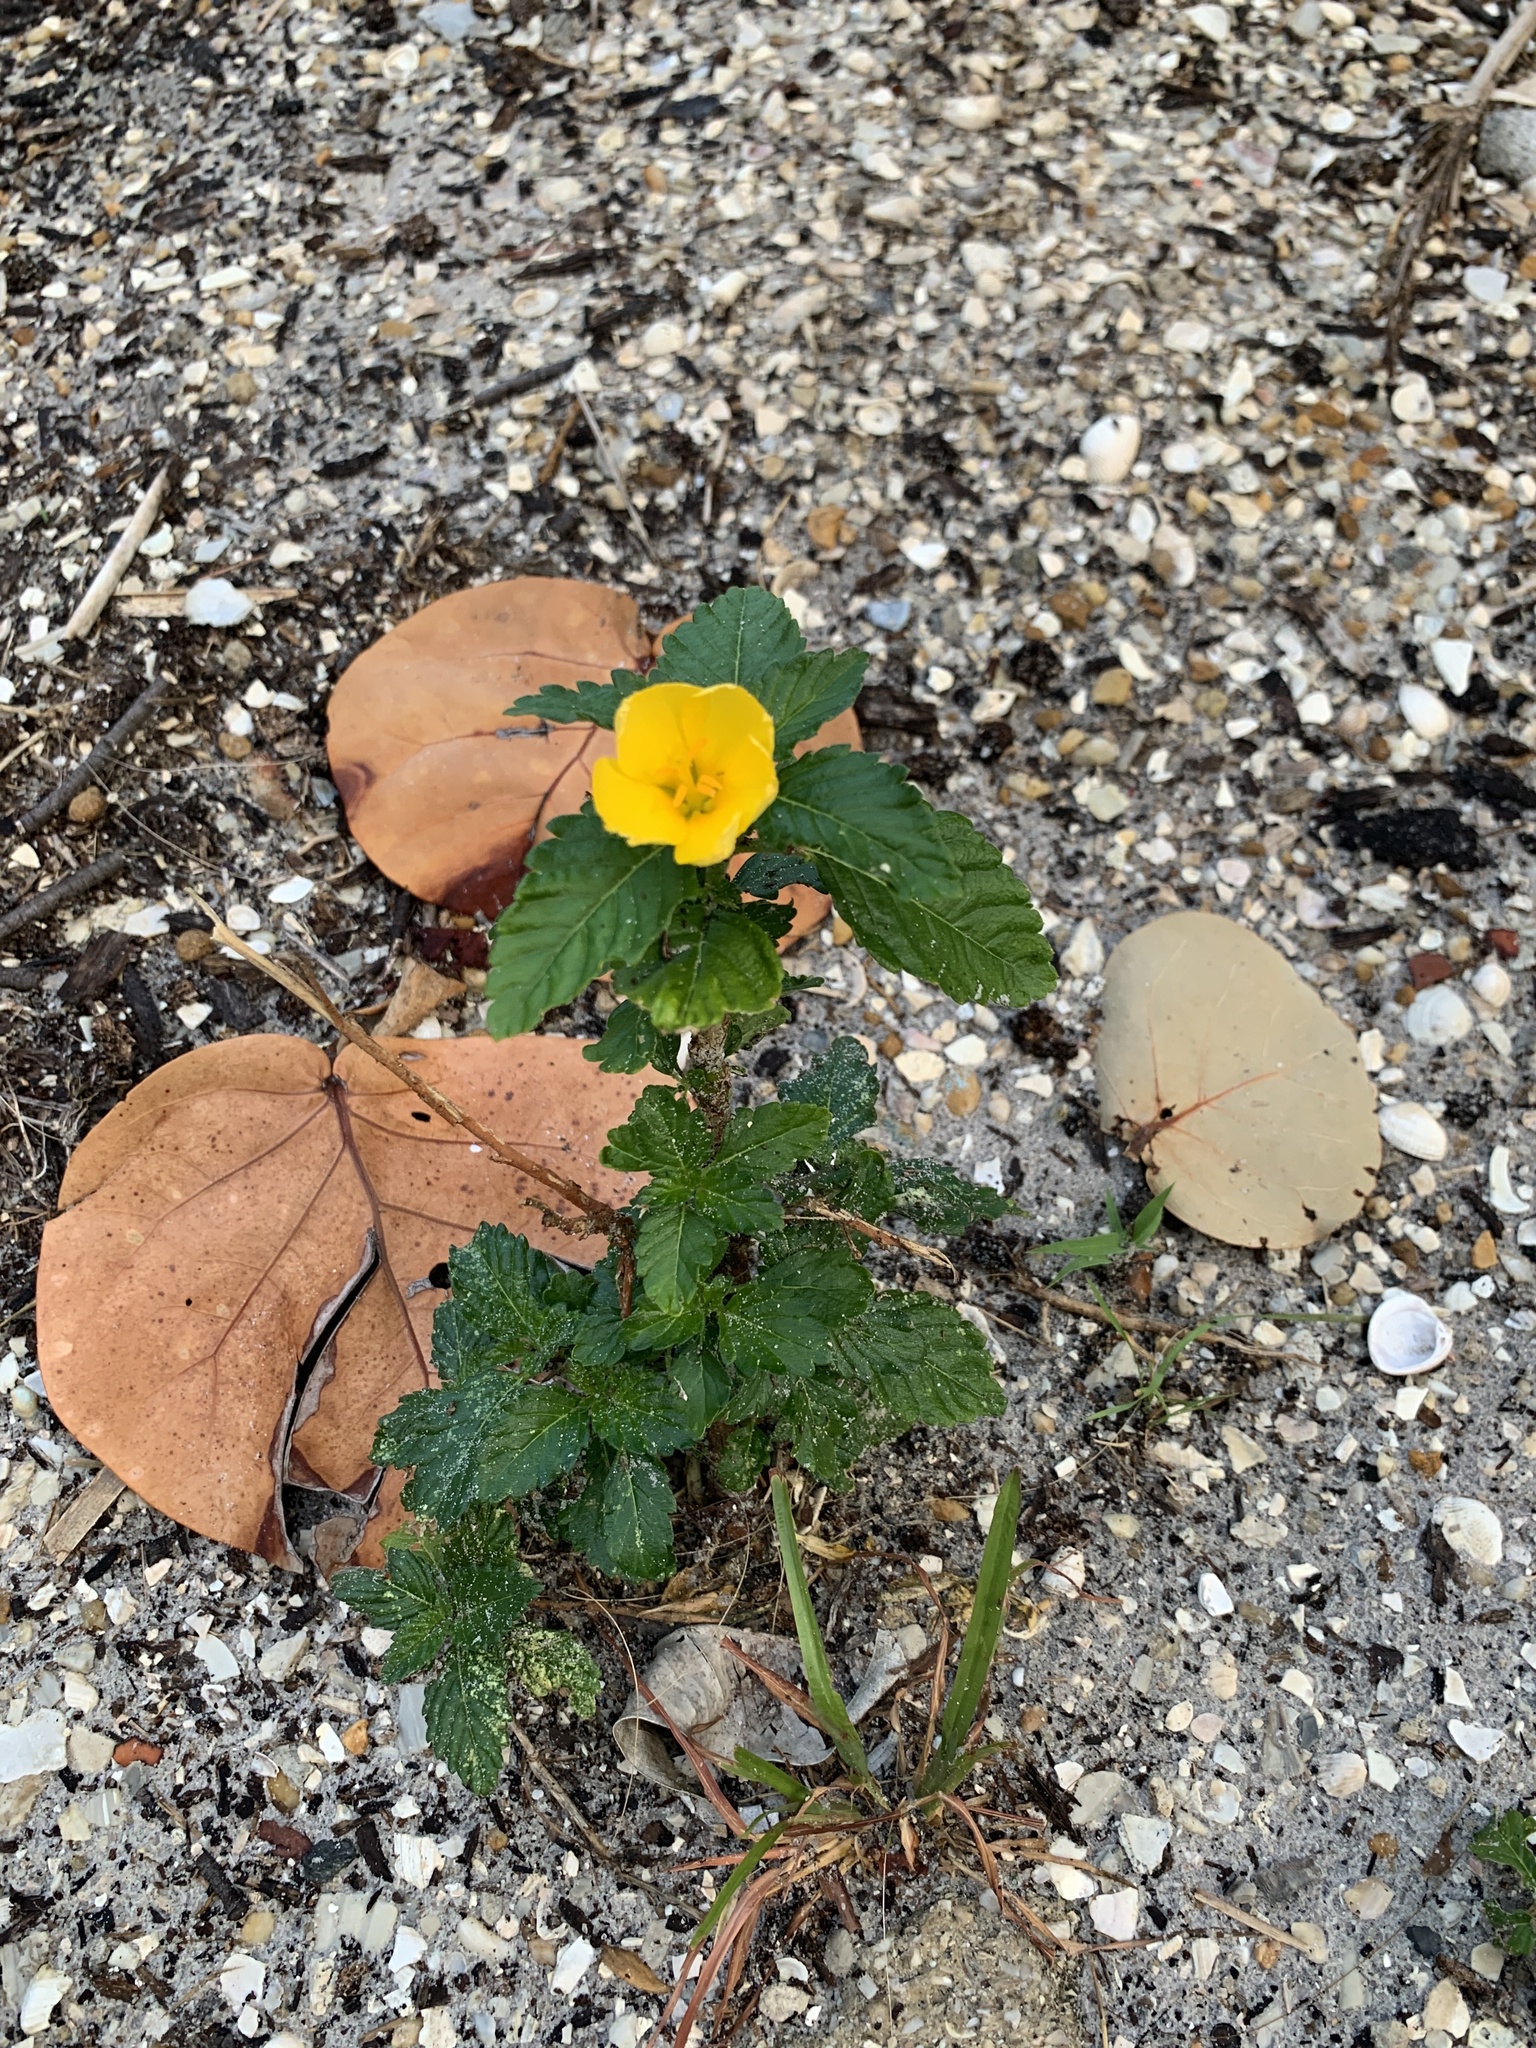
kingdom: Plantae
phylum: Tracheophyta
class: Magnoliopsida
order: Malpighiales
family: Turneraceae
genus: Turnera
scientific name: Turnera ulmifolia
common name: Ramgoat dashalong
